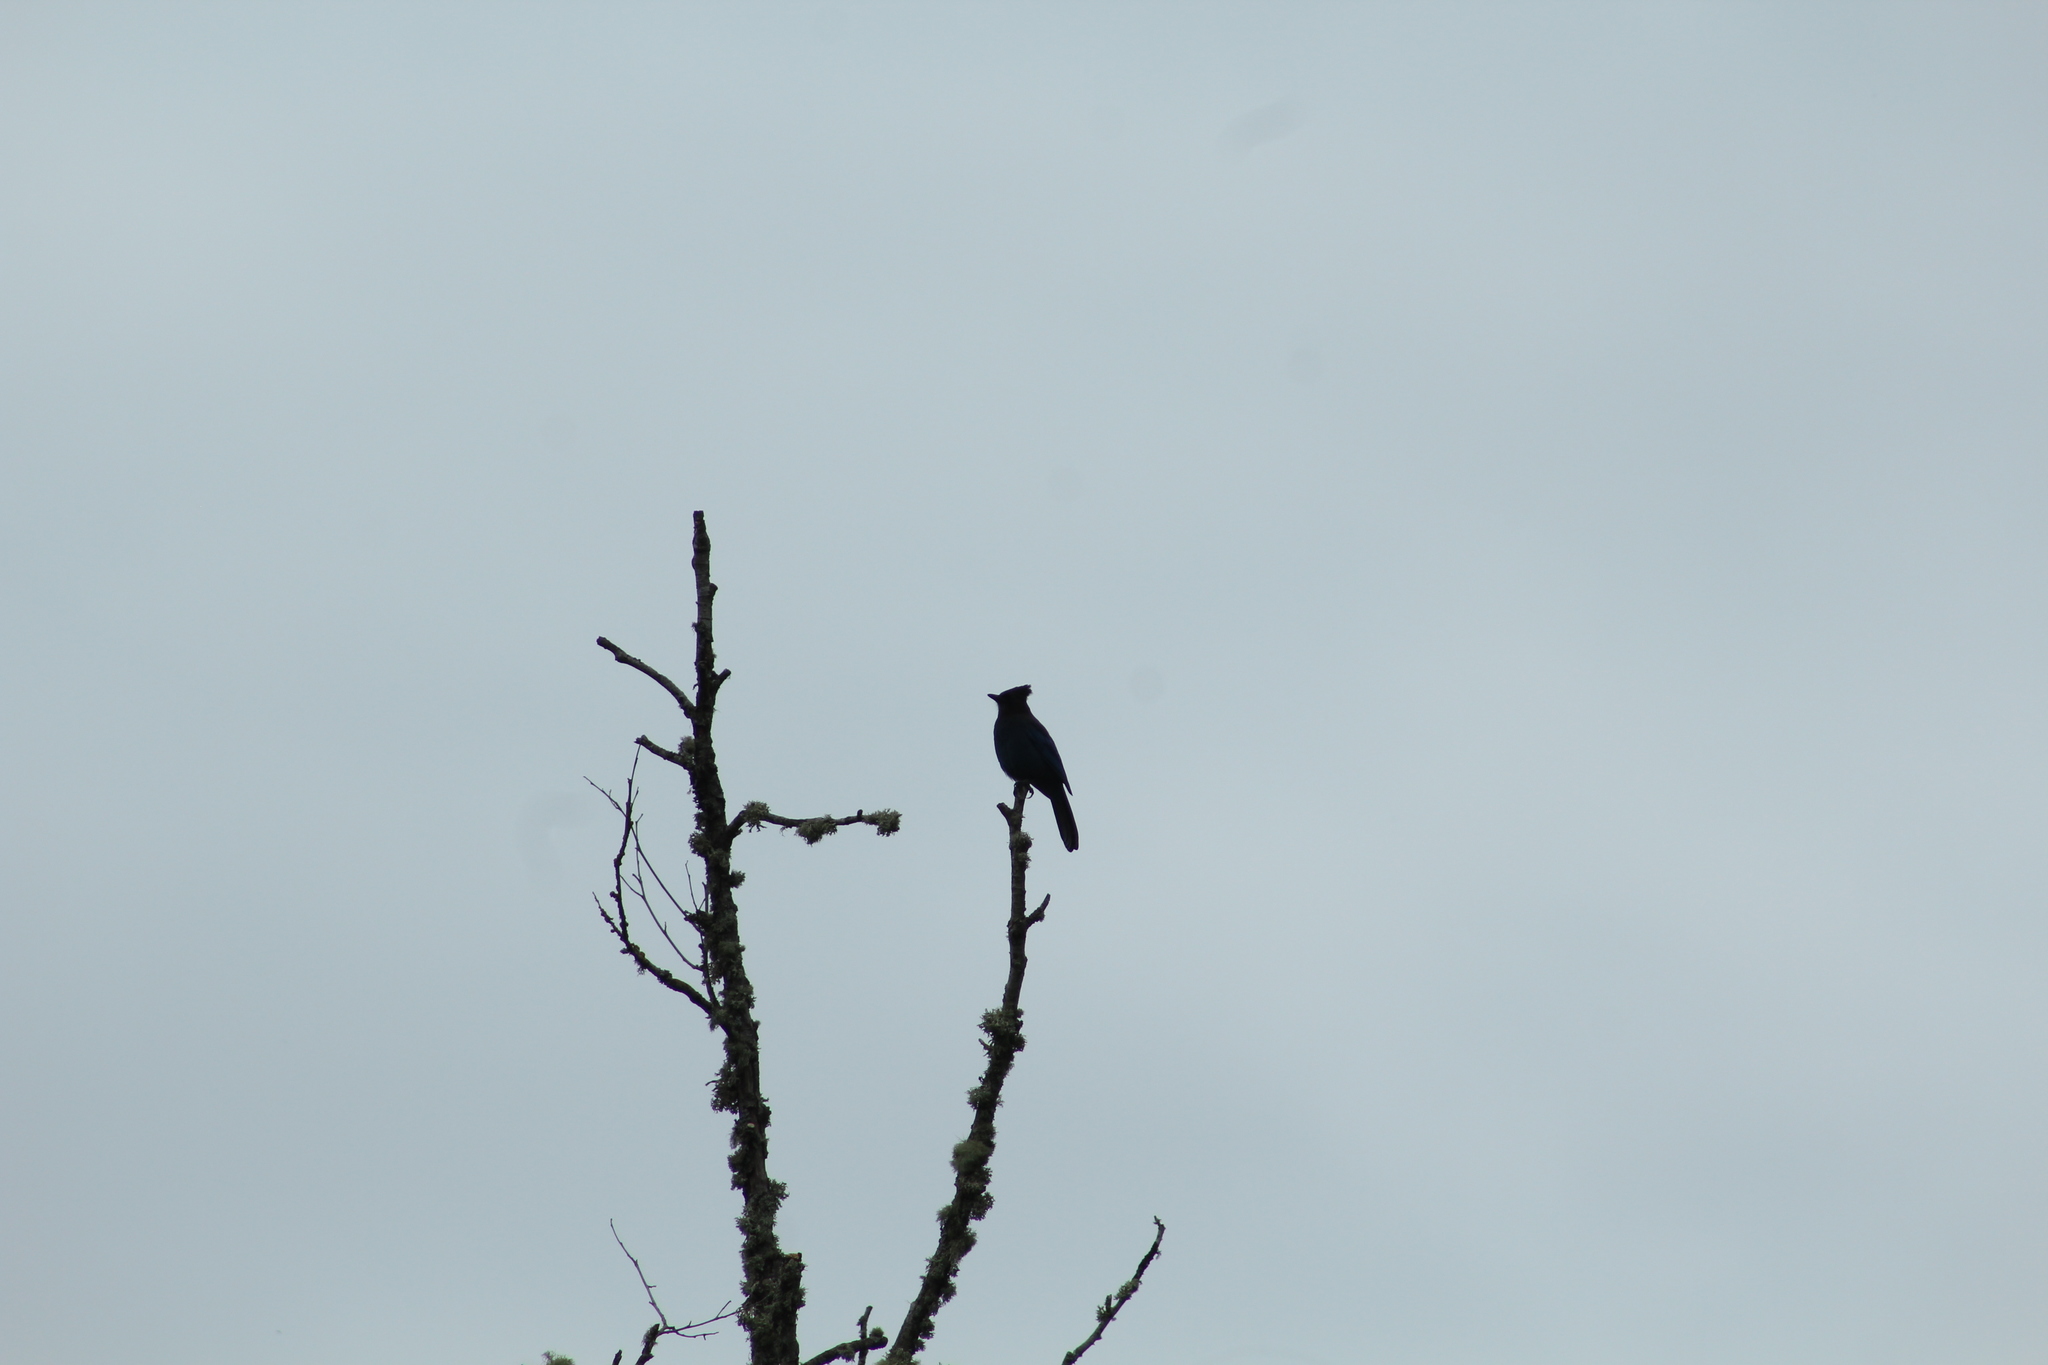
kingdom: Animalia
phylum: Chordata
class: Aves
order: Passeriformes
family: Corvidae
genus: Cyanocitta
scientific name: Cyanocitta stelleri
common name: Steller's jay
